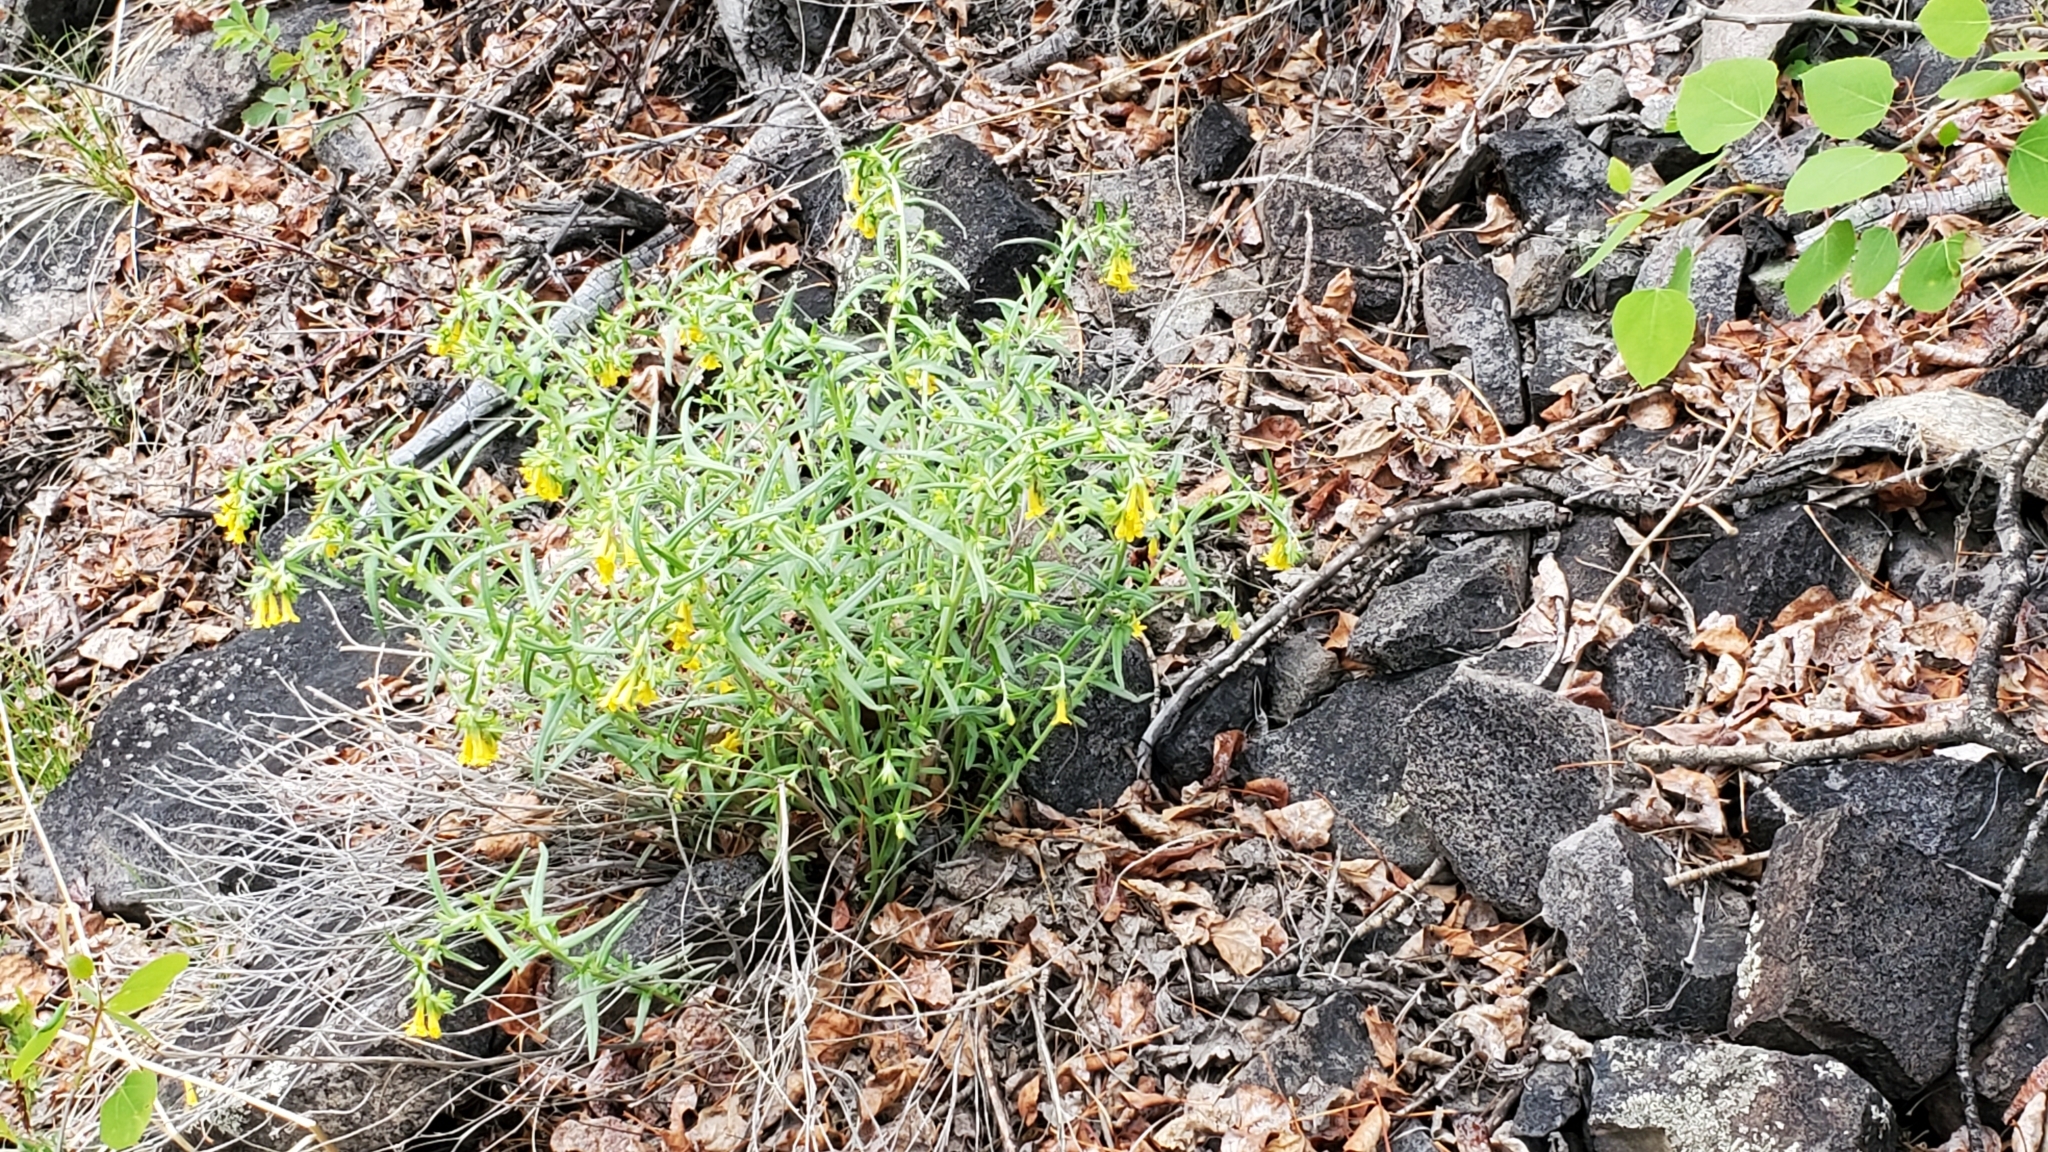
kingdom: Plantae
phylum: Tracheophyta
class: Magnoliopsida
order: Boraginales
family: Boraginaceae
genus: Lithospermum
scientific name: Lithospermum multiflorum
